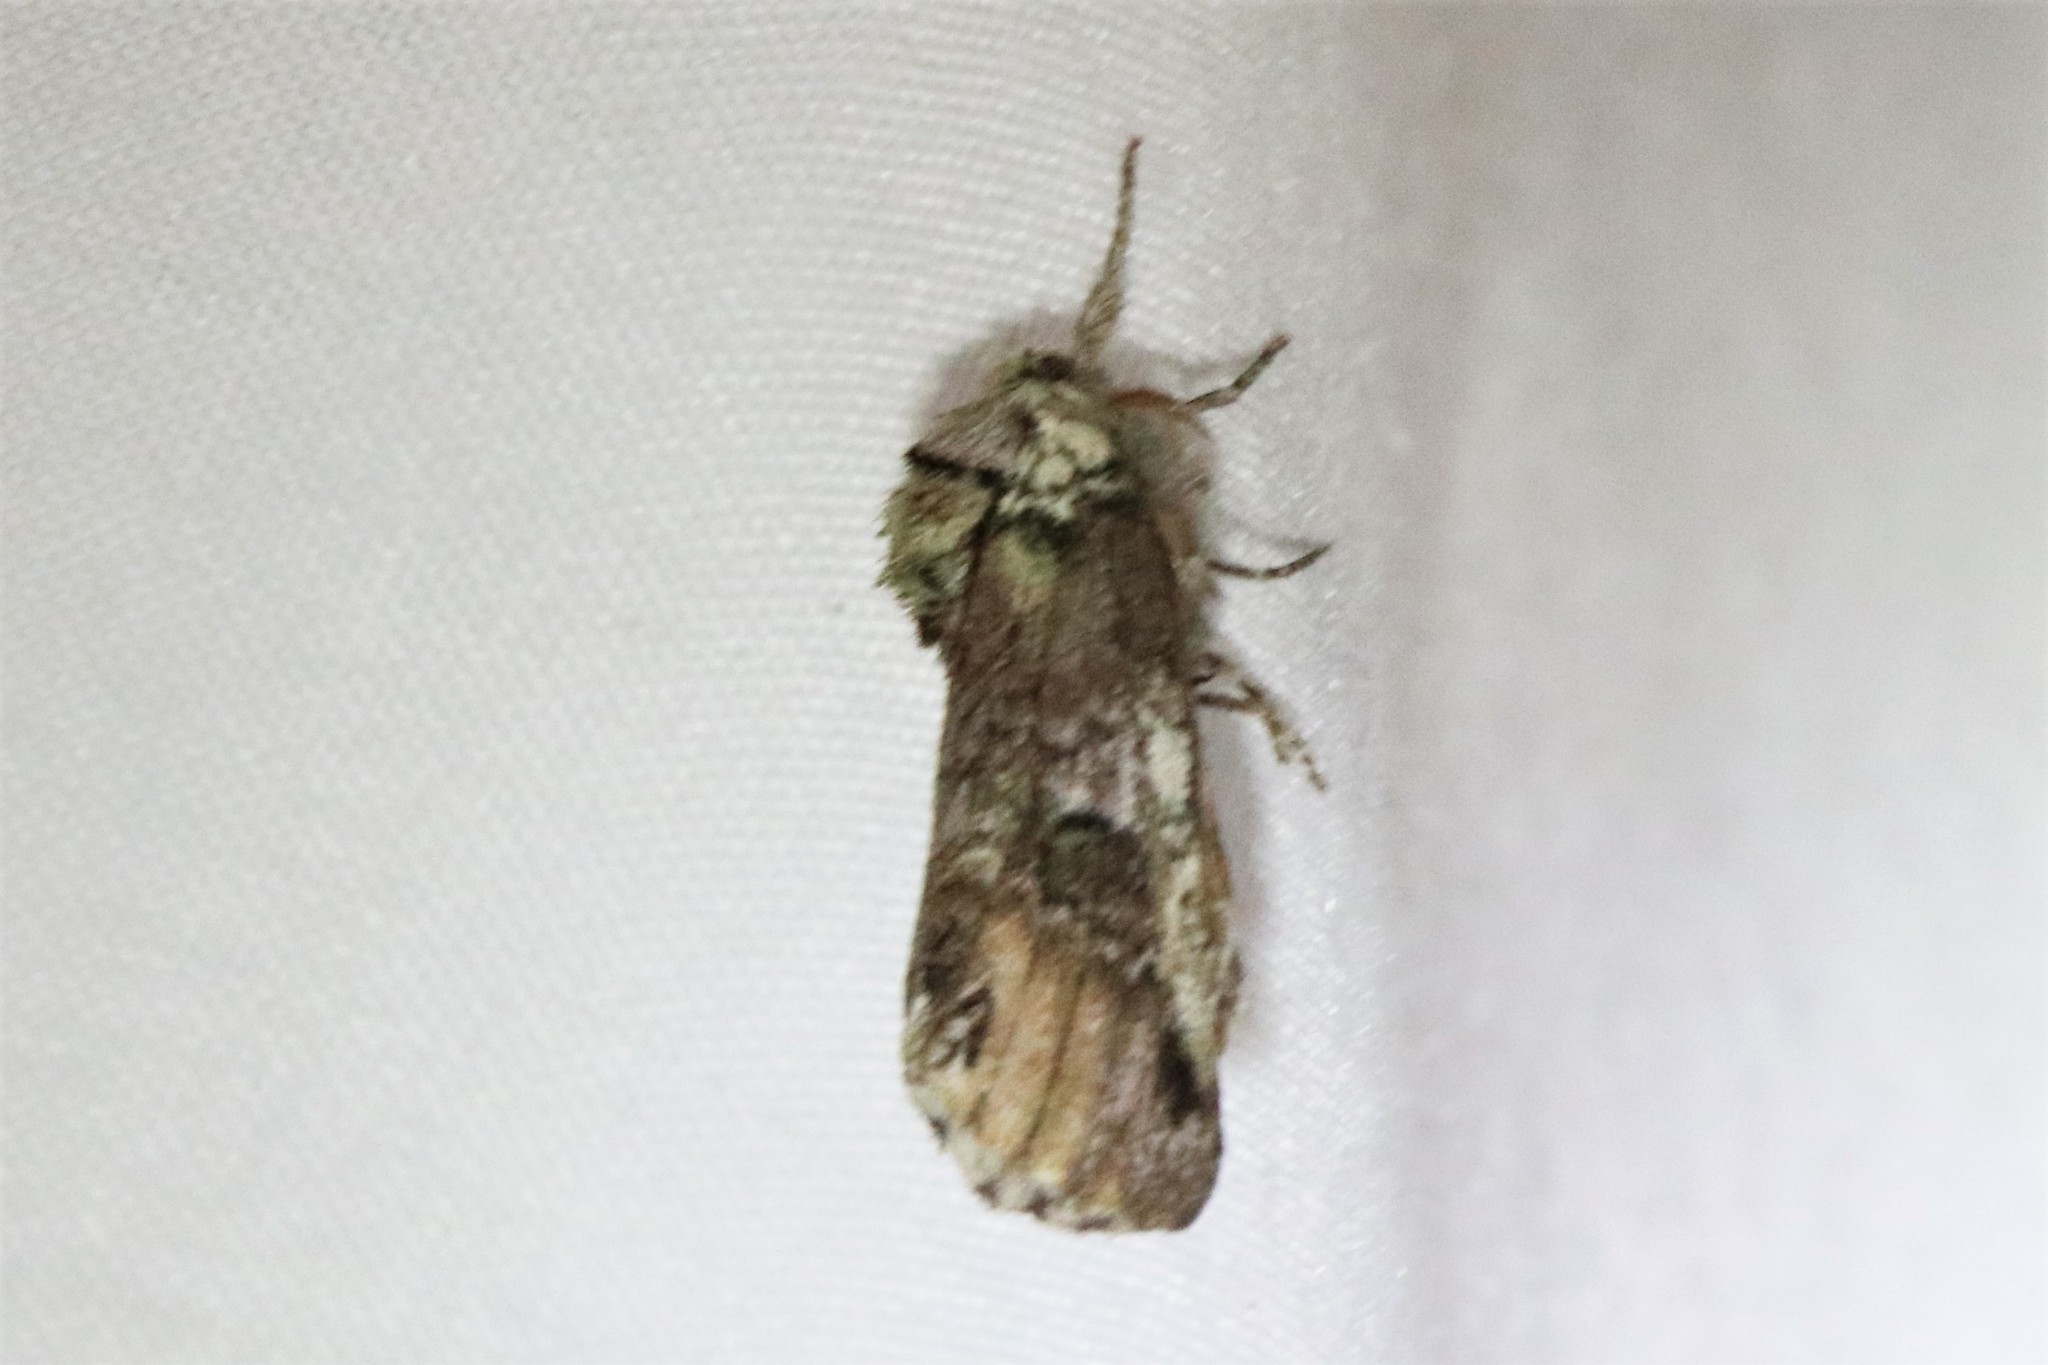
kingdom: Animalia
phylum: Arthropoda
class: Insecta
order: Lepidoptera
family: Notodontidae
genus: Schizura
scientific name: Schizura
